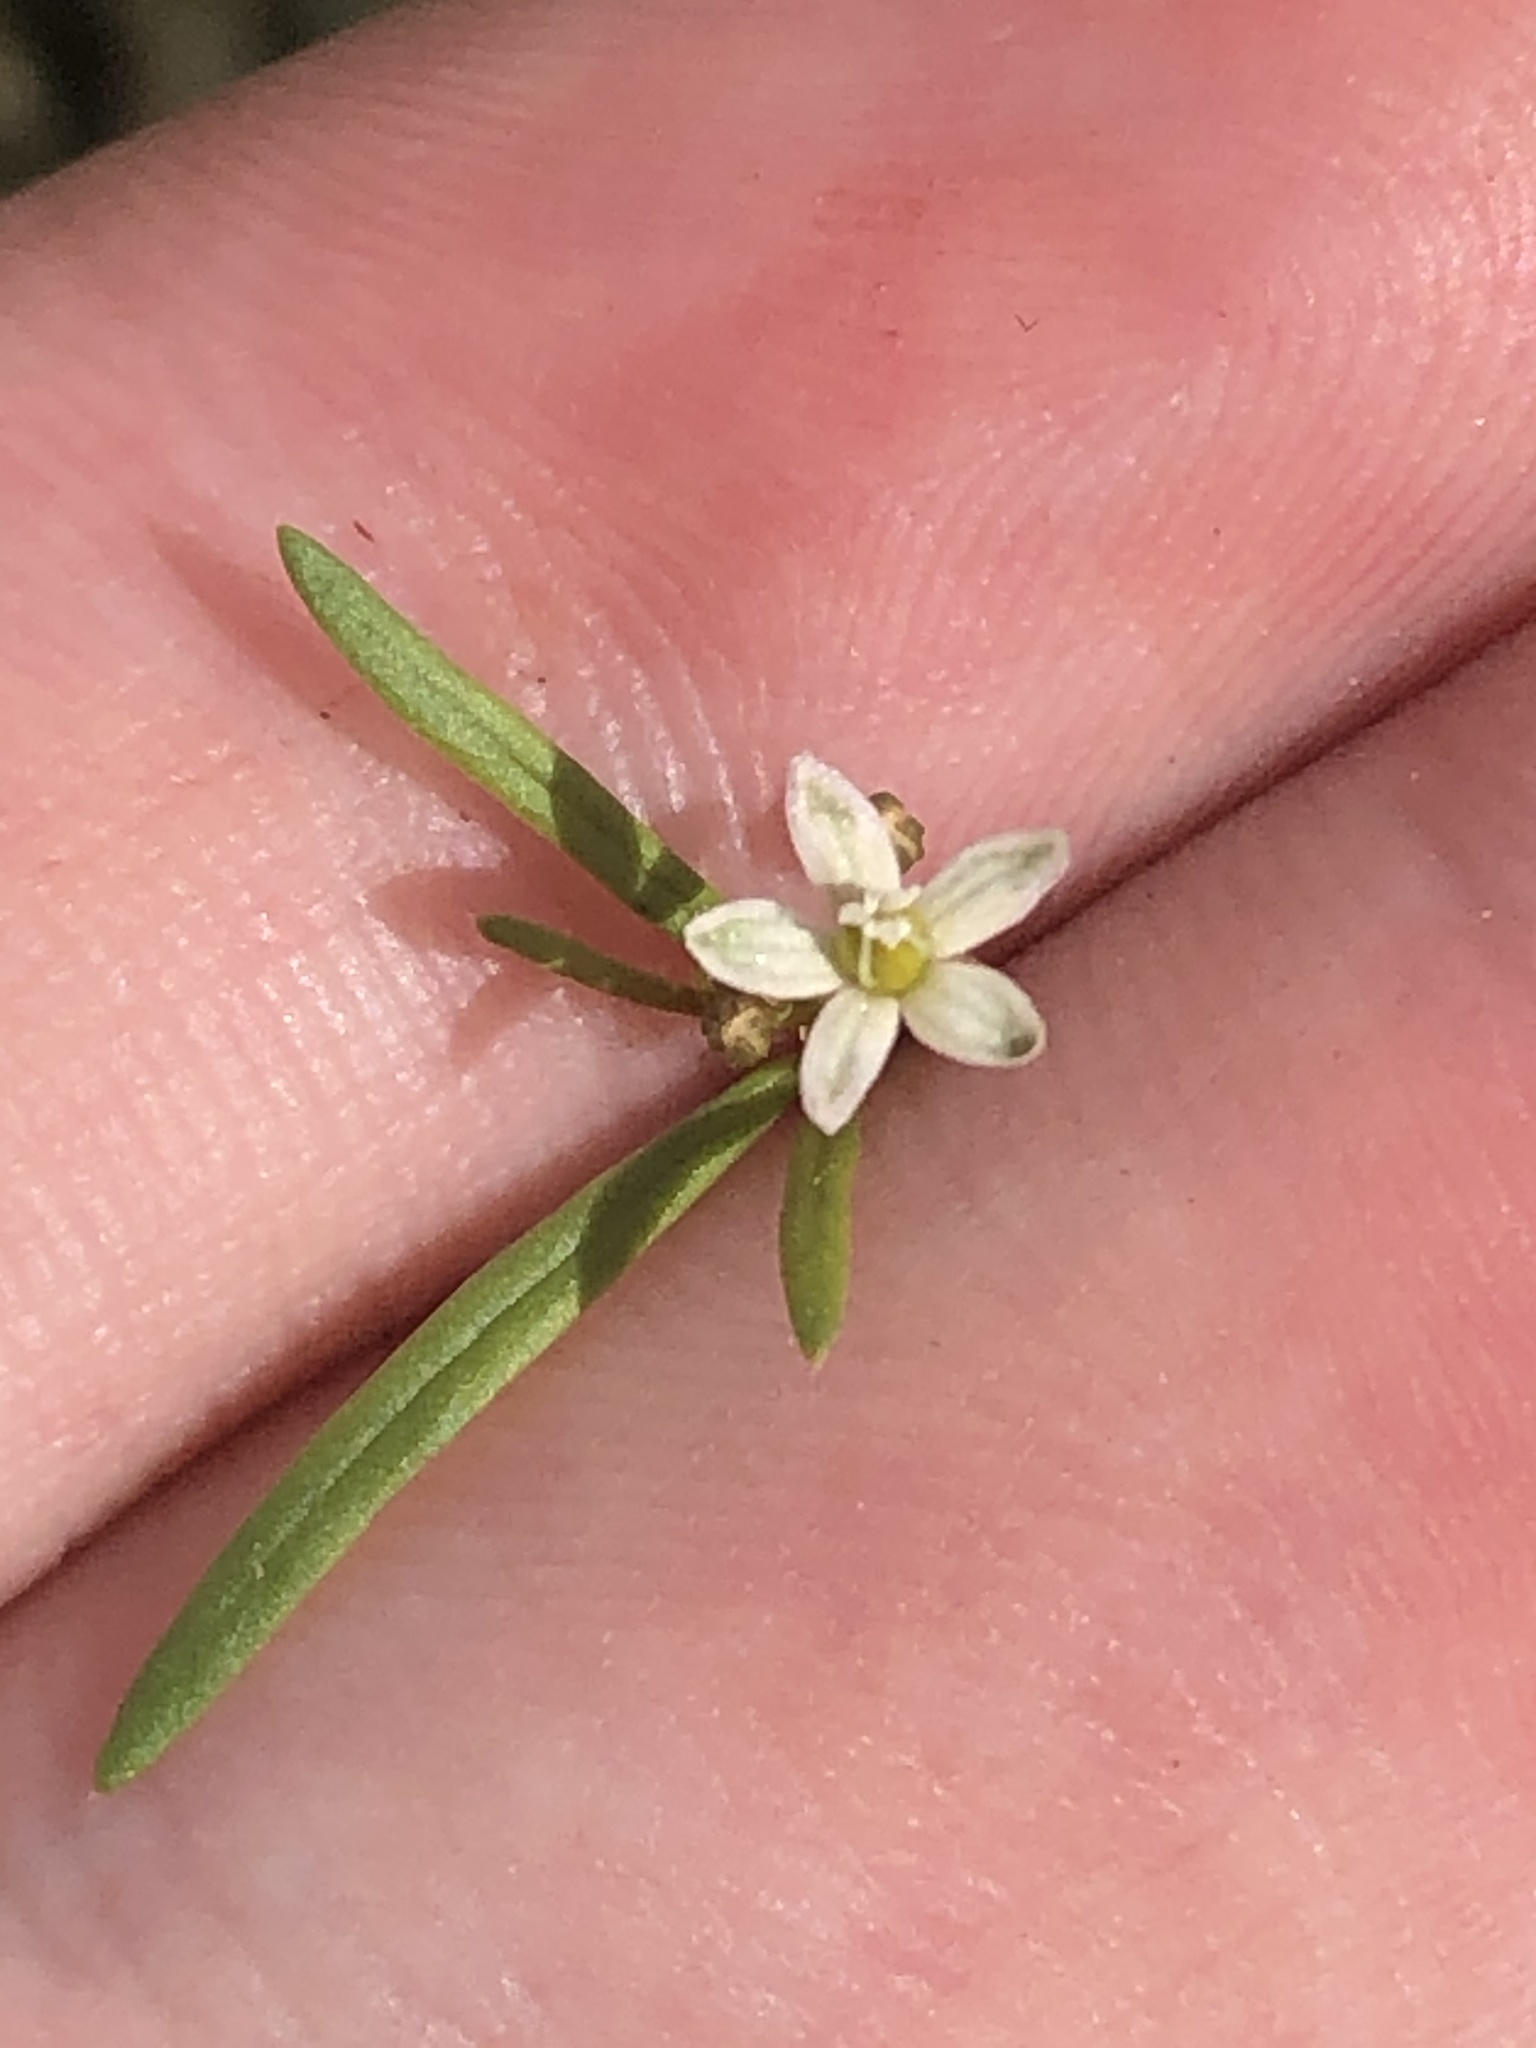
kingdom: Plantae
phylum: Tracheophyta
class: Magnoliopsida
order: Caryophyllales
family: Molluginaceae
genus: Mollugo
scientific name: Mollugo verticillata
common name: Green carpetweed
